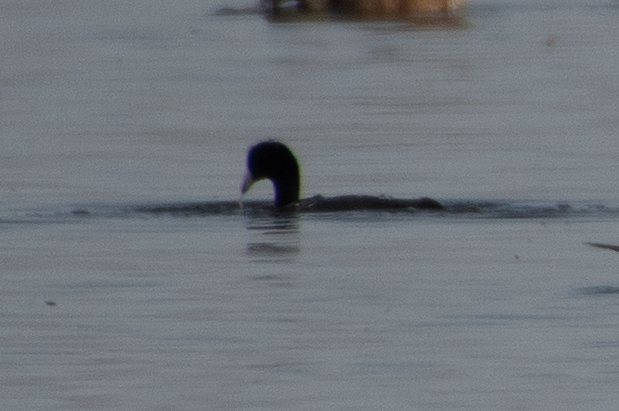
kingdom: Animalia
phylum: Chordata
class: Aves
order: Gruiformes
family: Rallidae
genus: Fulica
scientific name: Fulica americana
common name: American coot
